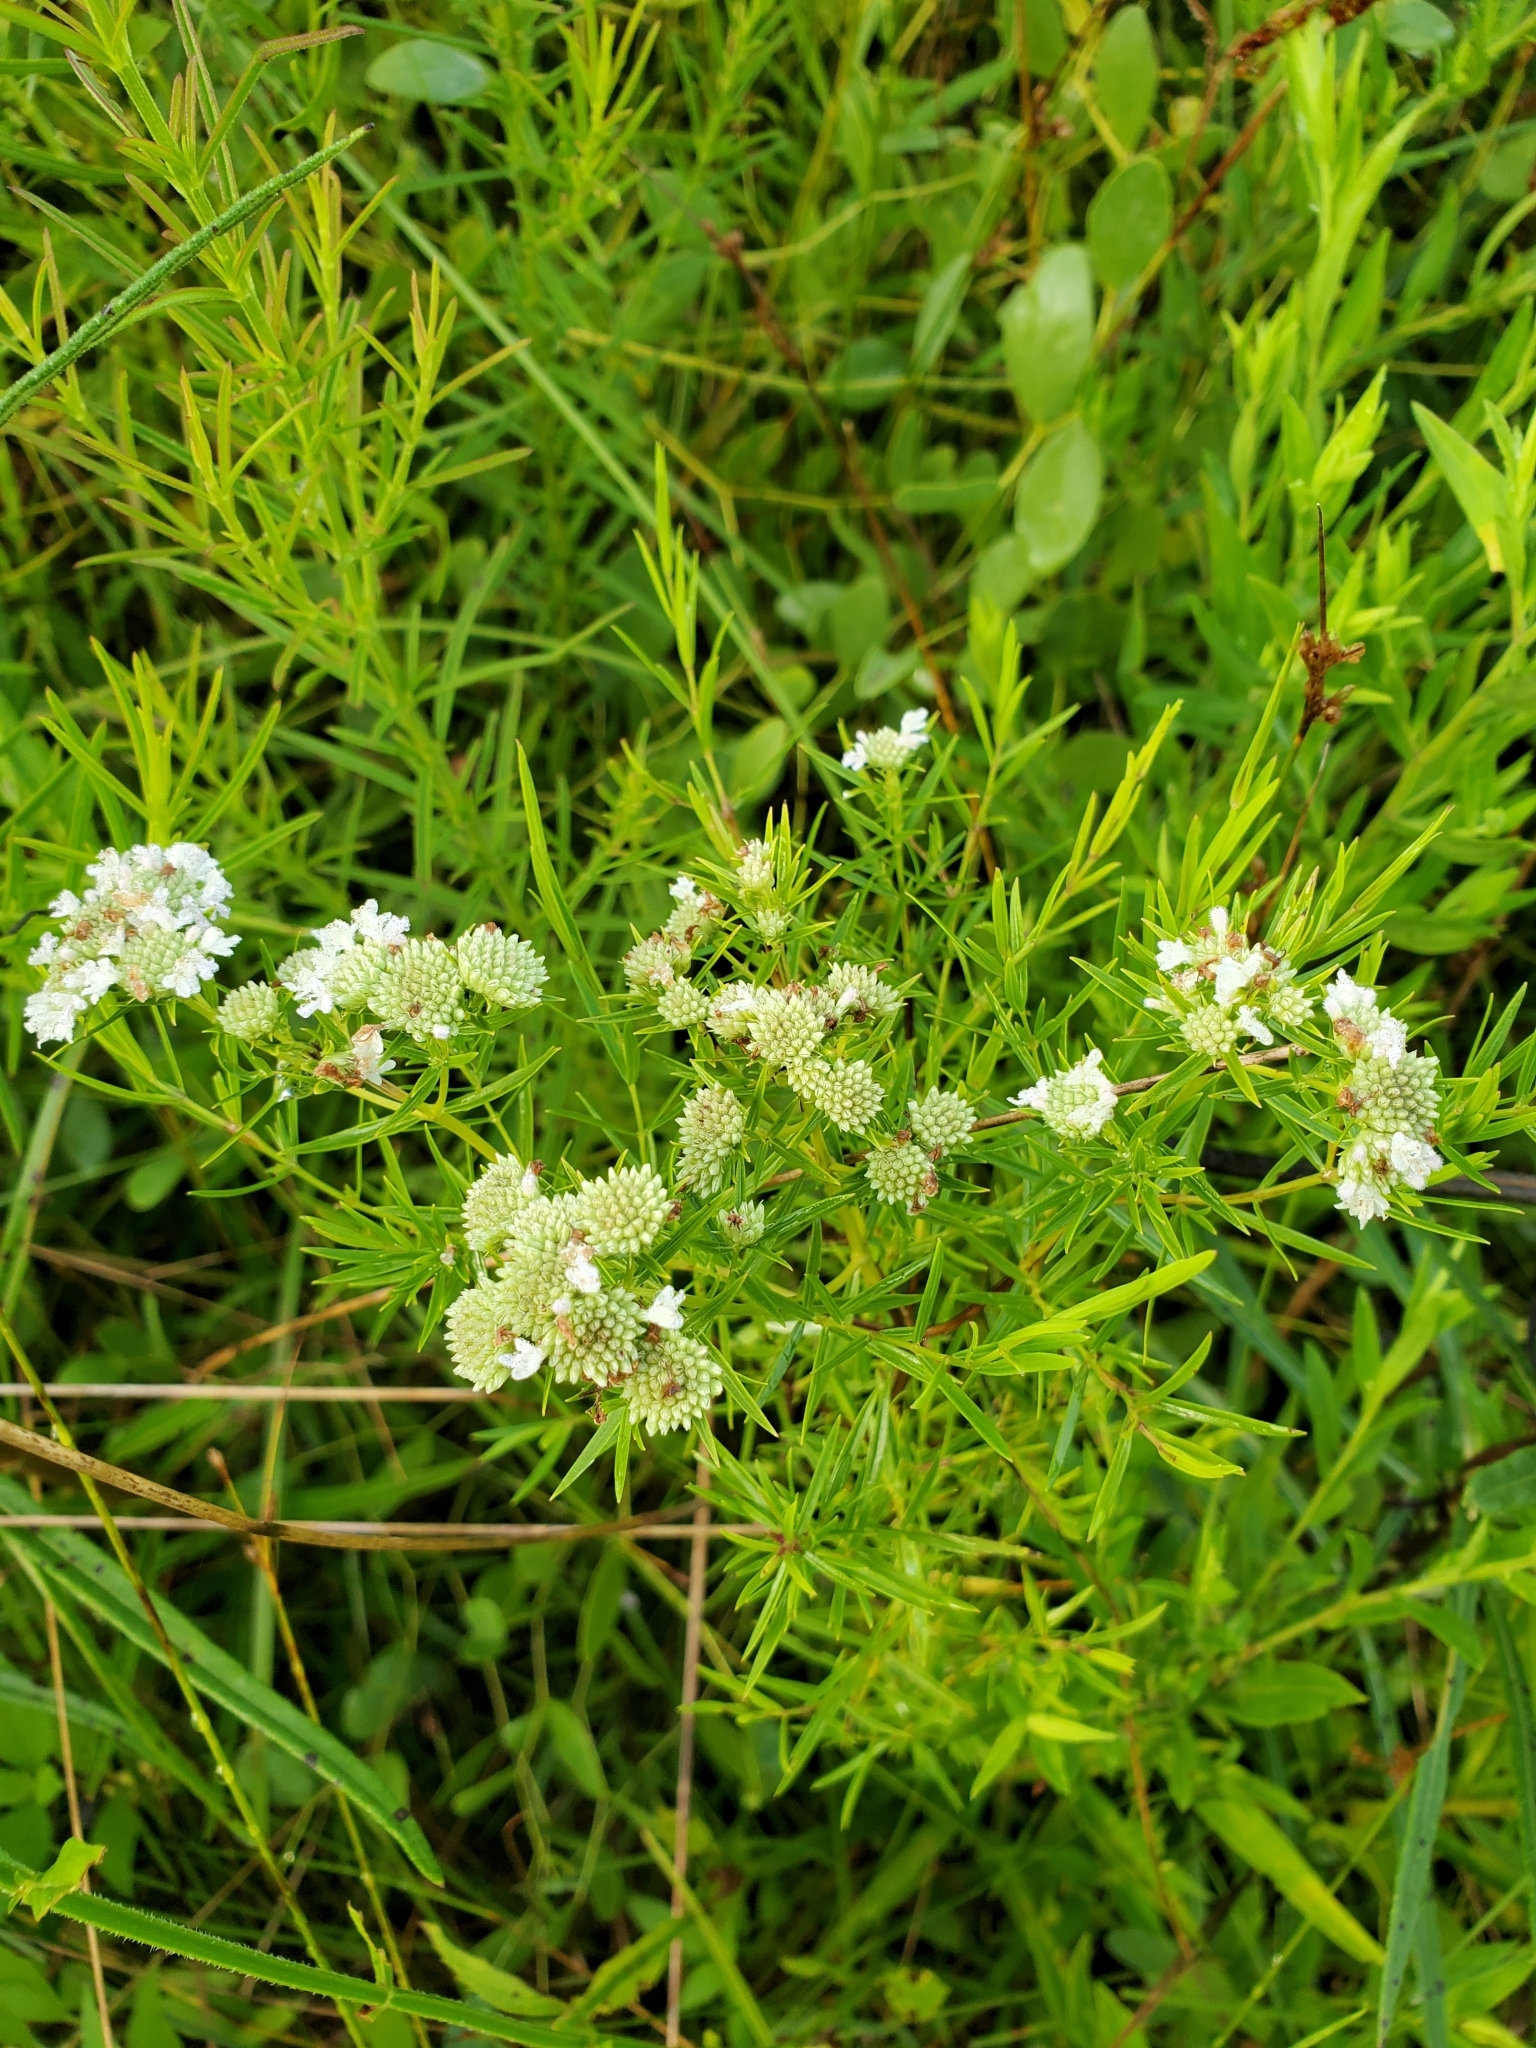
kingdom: Plantae
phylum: Tracheophyta
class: Magnoliopsida
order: Lamiales
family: Lamiaceae
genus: Pycnanthemum
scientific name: Pycnanthemum tenuifolium
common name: Narrow-leaf mountain-mint
